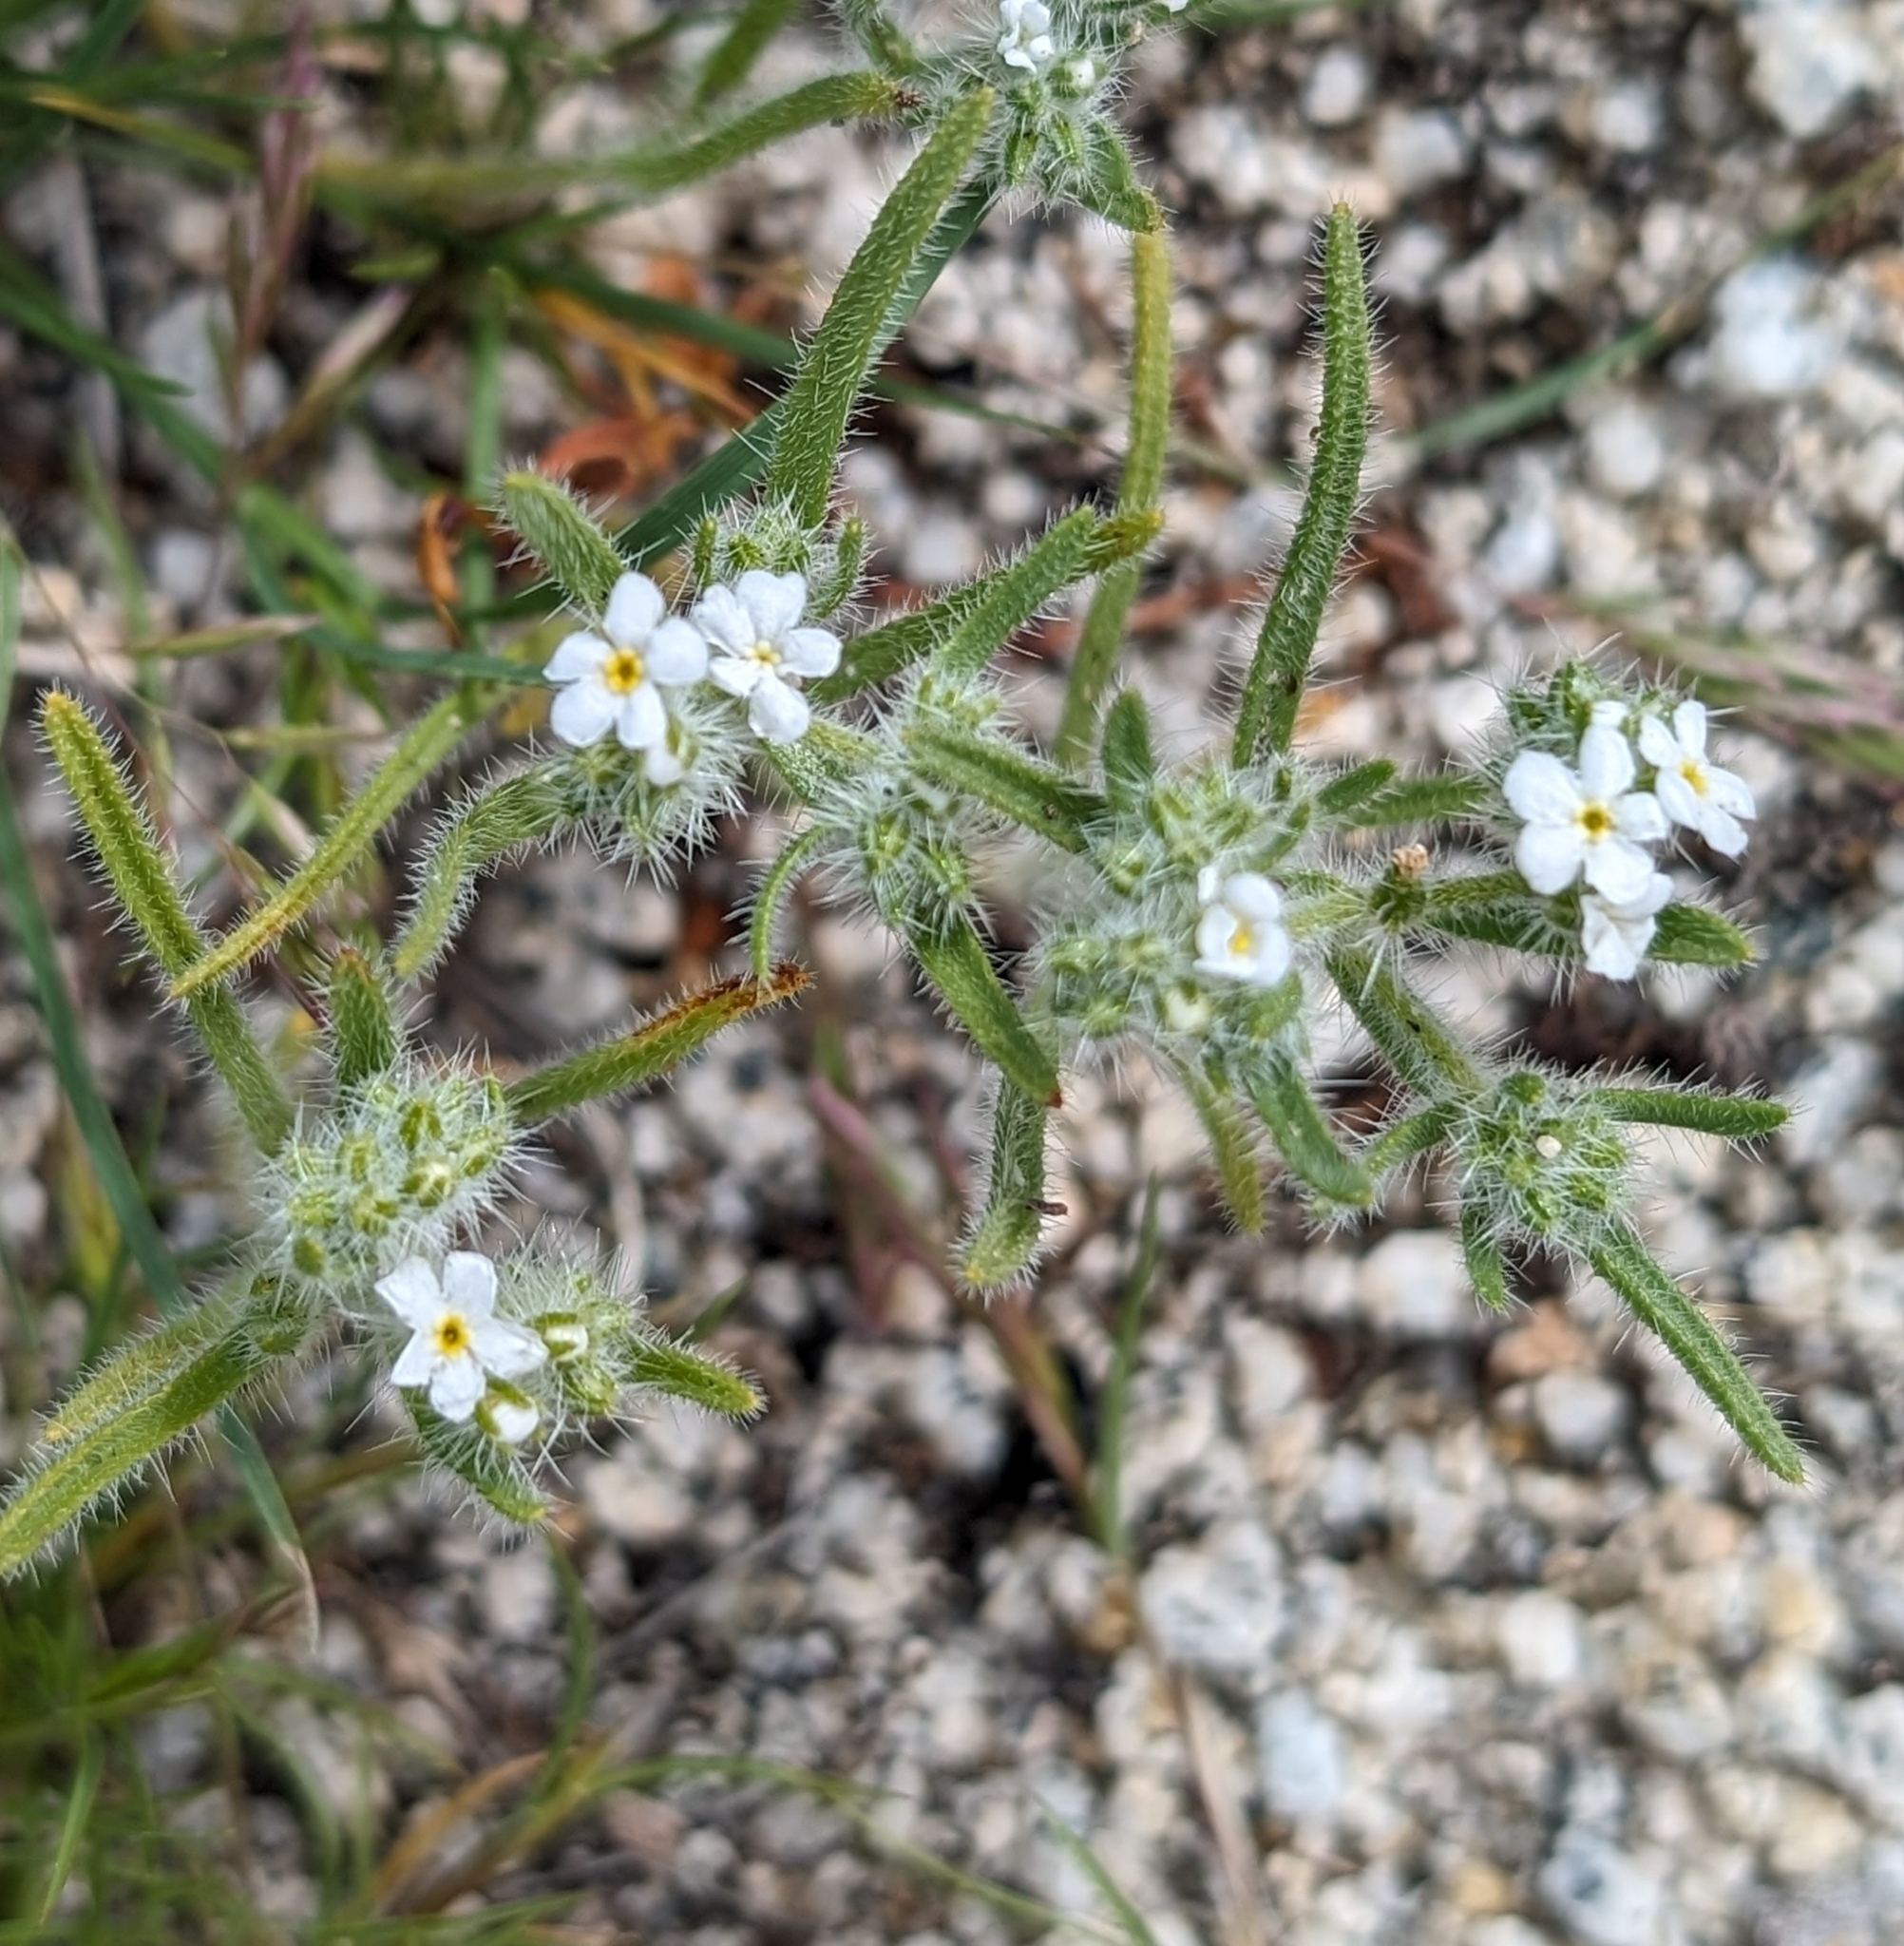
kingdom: Plantae
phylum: Tracheophyta
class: Magnoliopsida
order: Boraginales
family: Boraginaceae
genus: Johnstonella
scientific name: Johnstonella angustifolia
